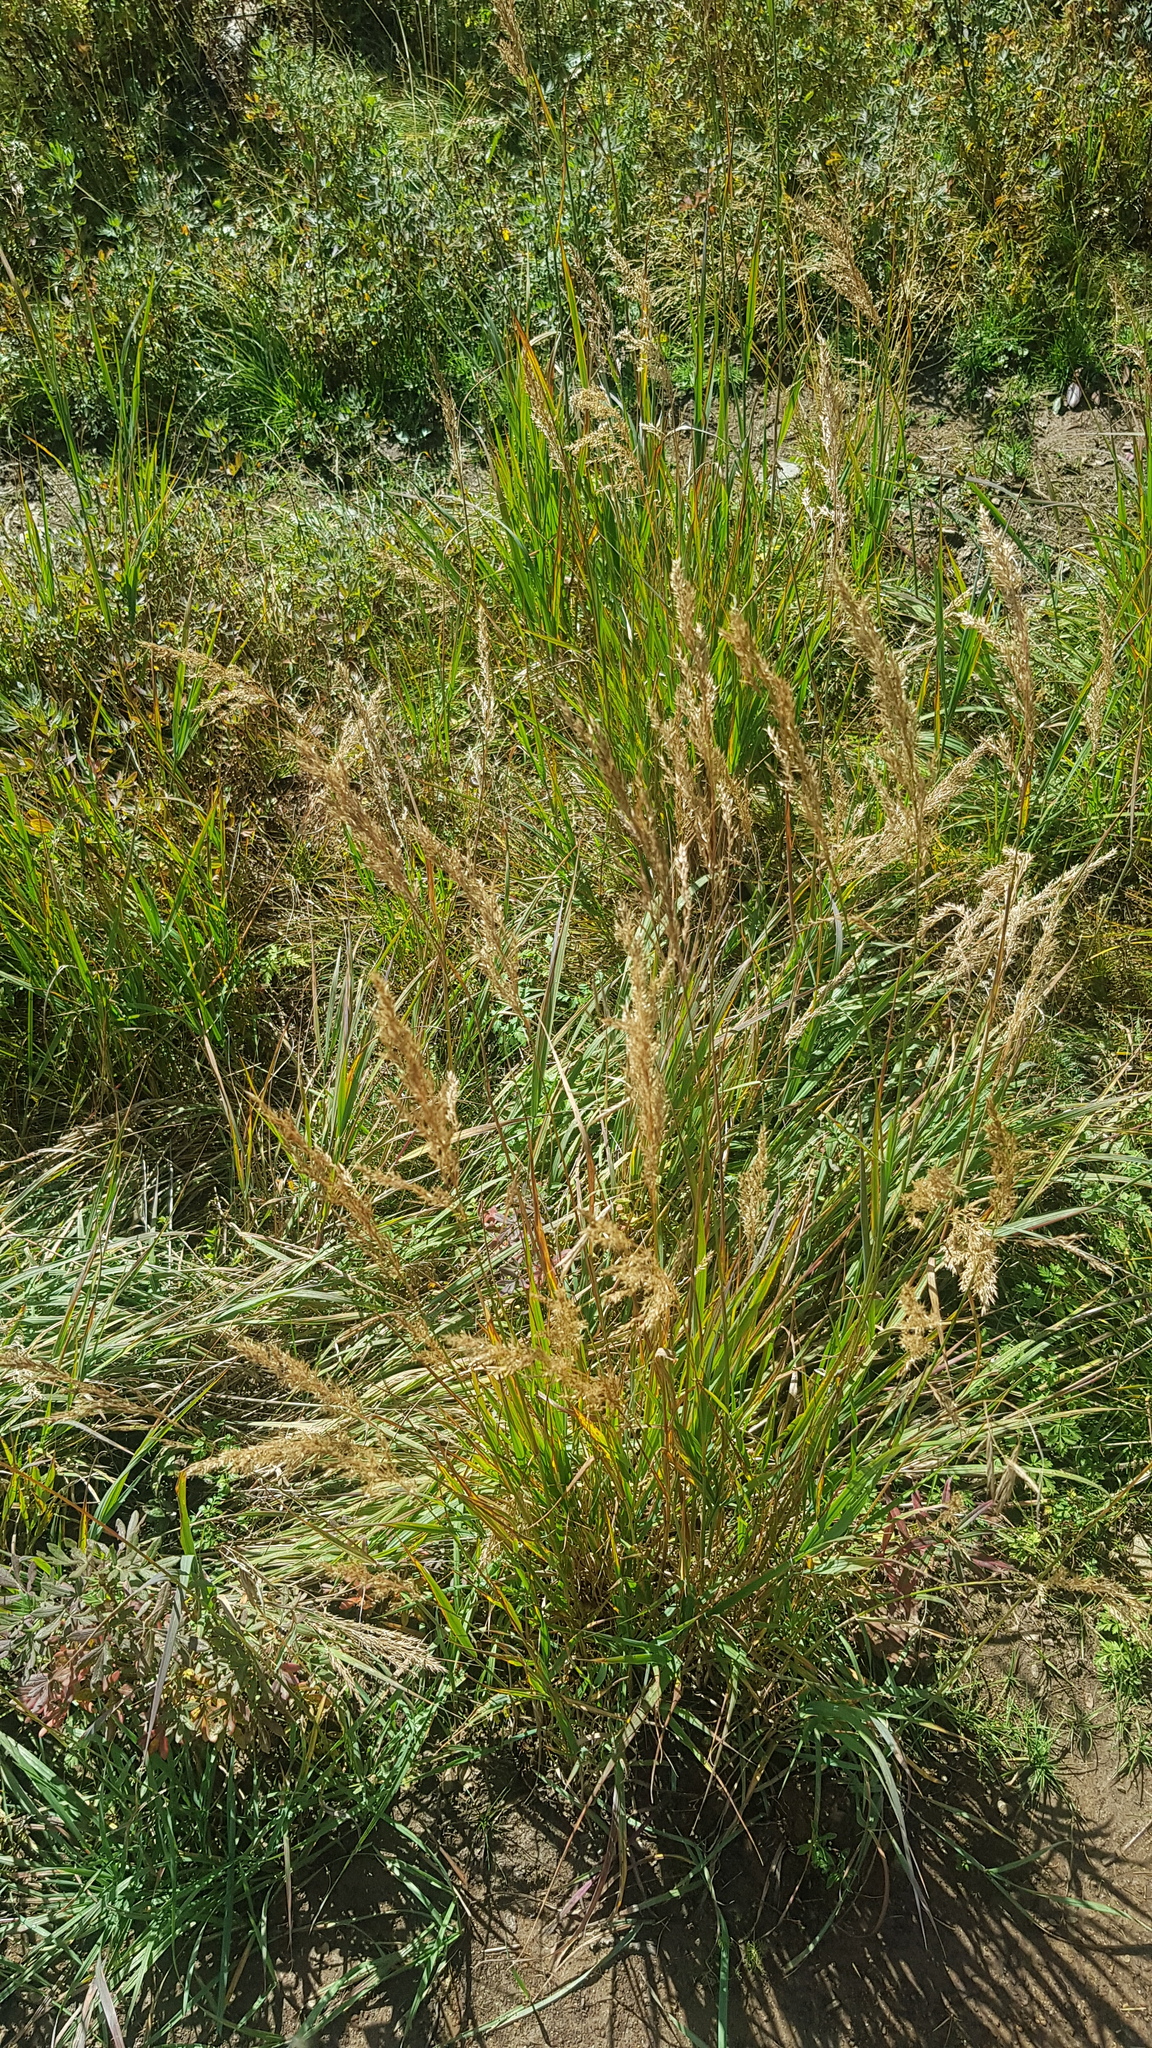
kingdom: Plantae
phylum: Tracheophyta
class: Liliopsida
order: Poales
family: Poaceae
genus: Koeleria
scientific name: Koeleria macrantha
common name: Crested hair-grass
